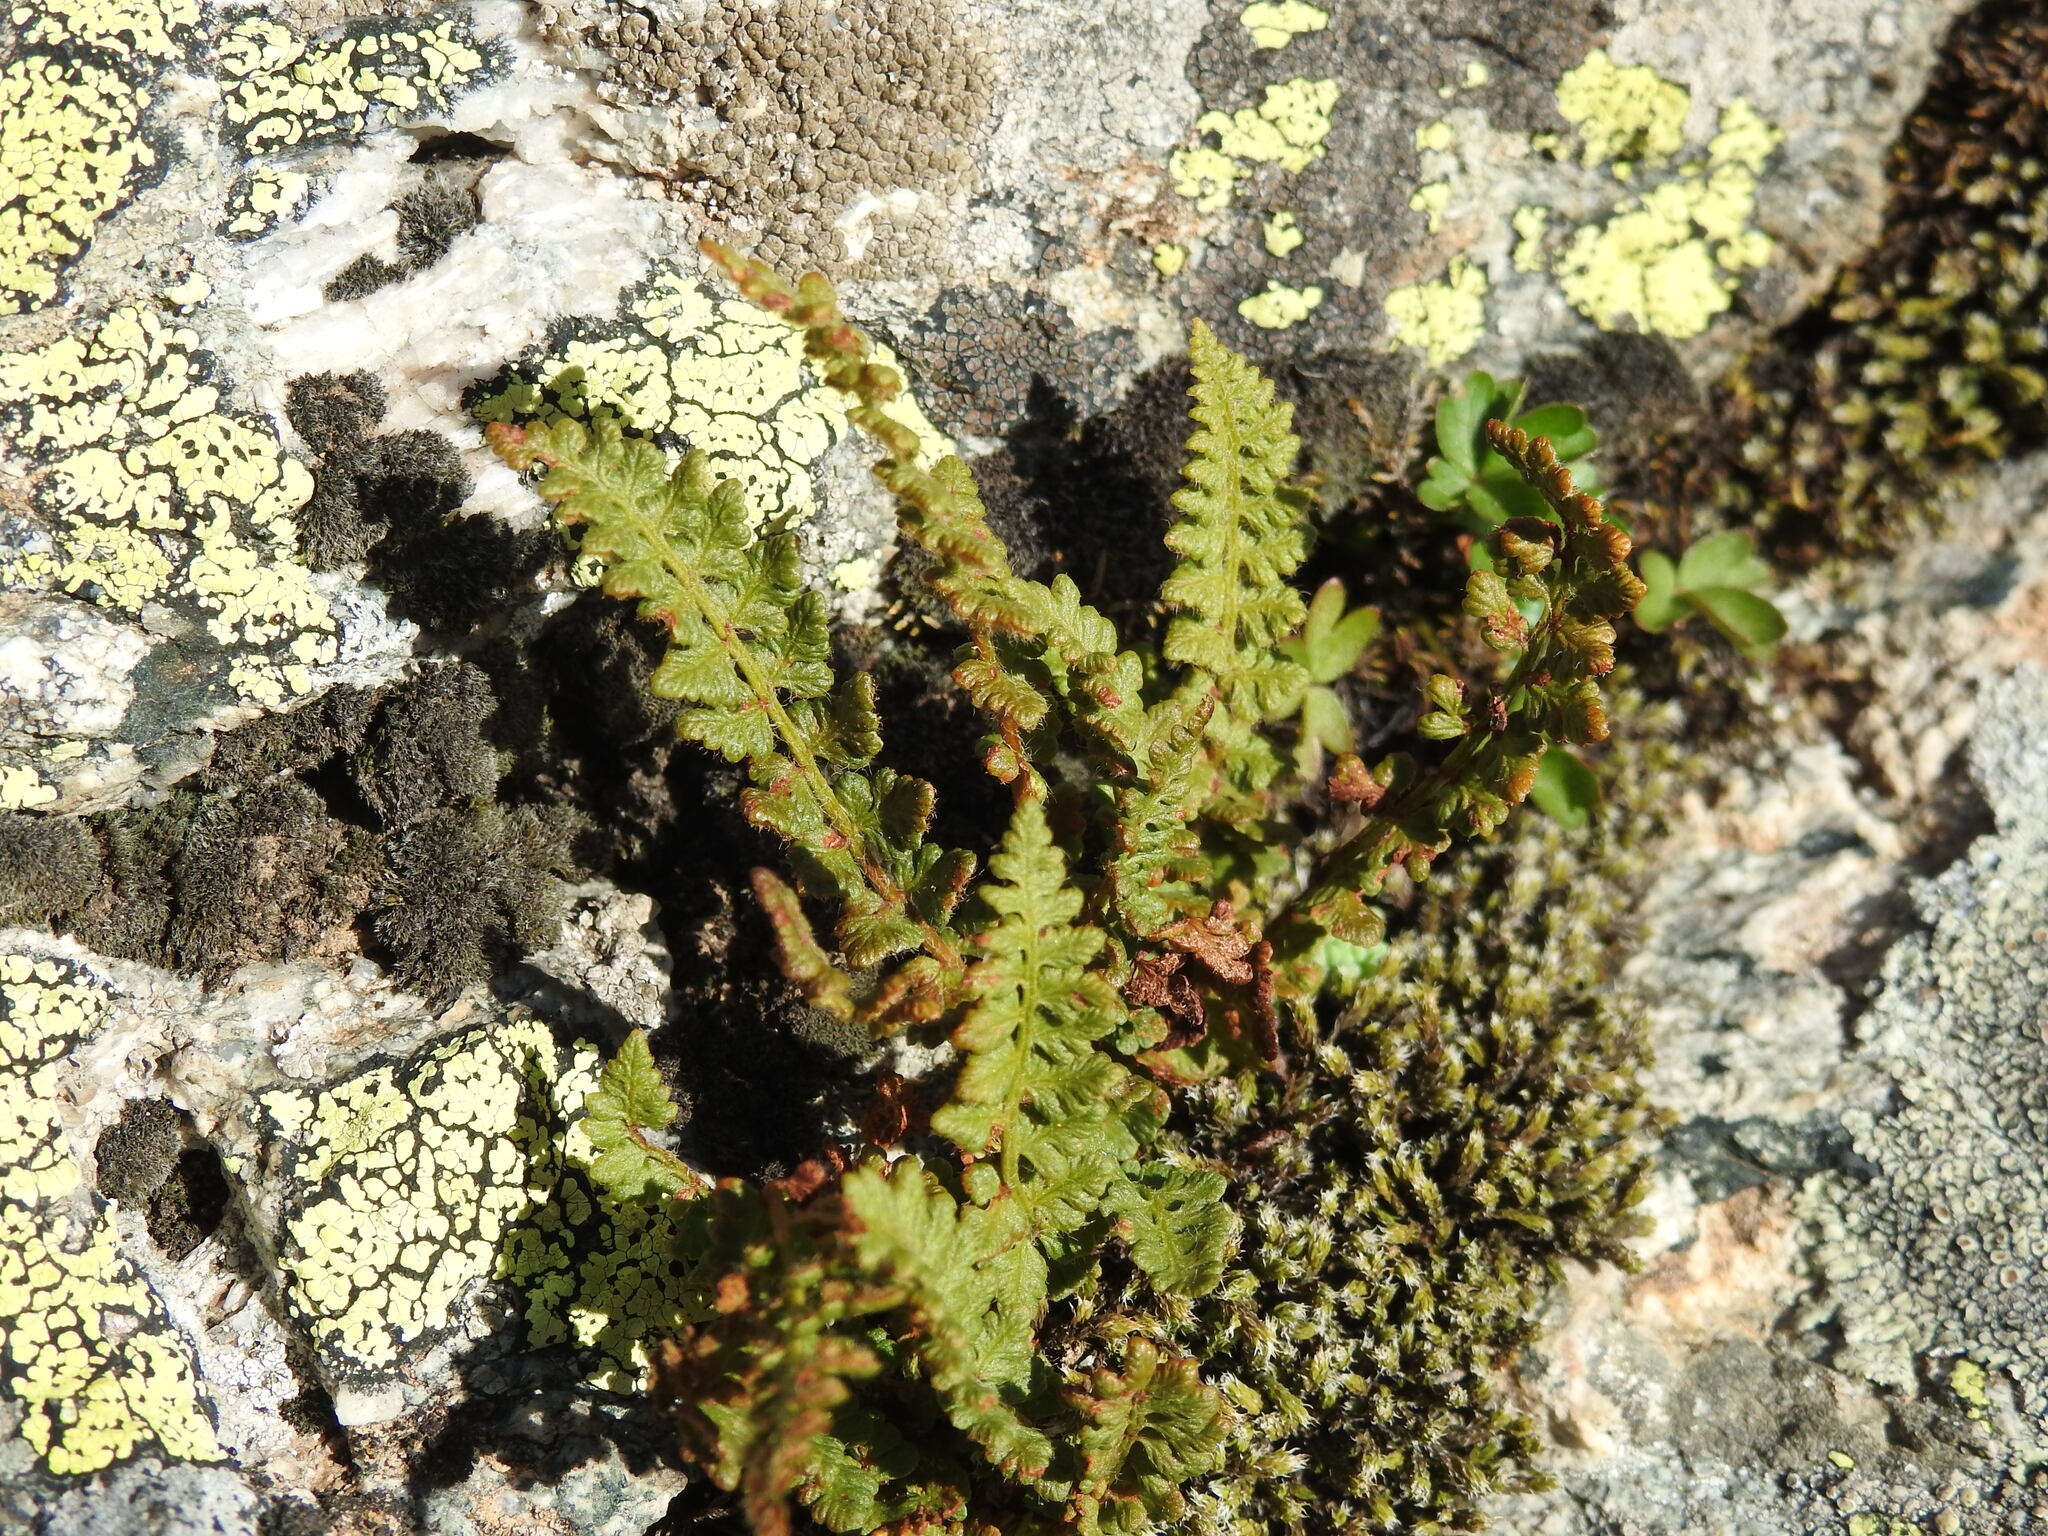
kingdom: Plantae
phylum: Tracheophyta
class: Polypodiopsida
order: Polypodiales
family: Woodsiaceae
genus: Woodsia
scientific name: Woodsia alpina
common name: Alpine woodsia
